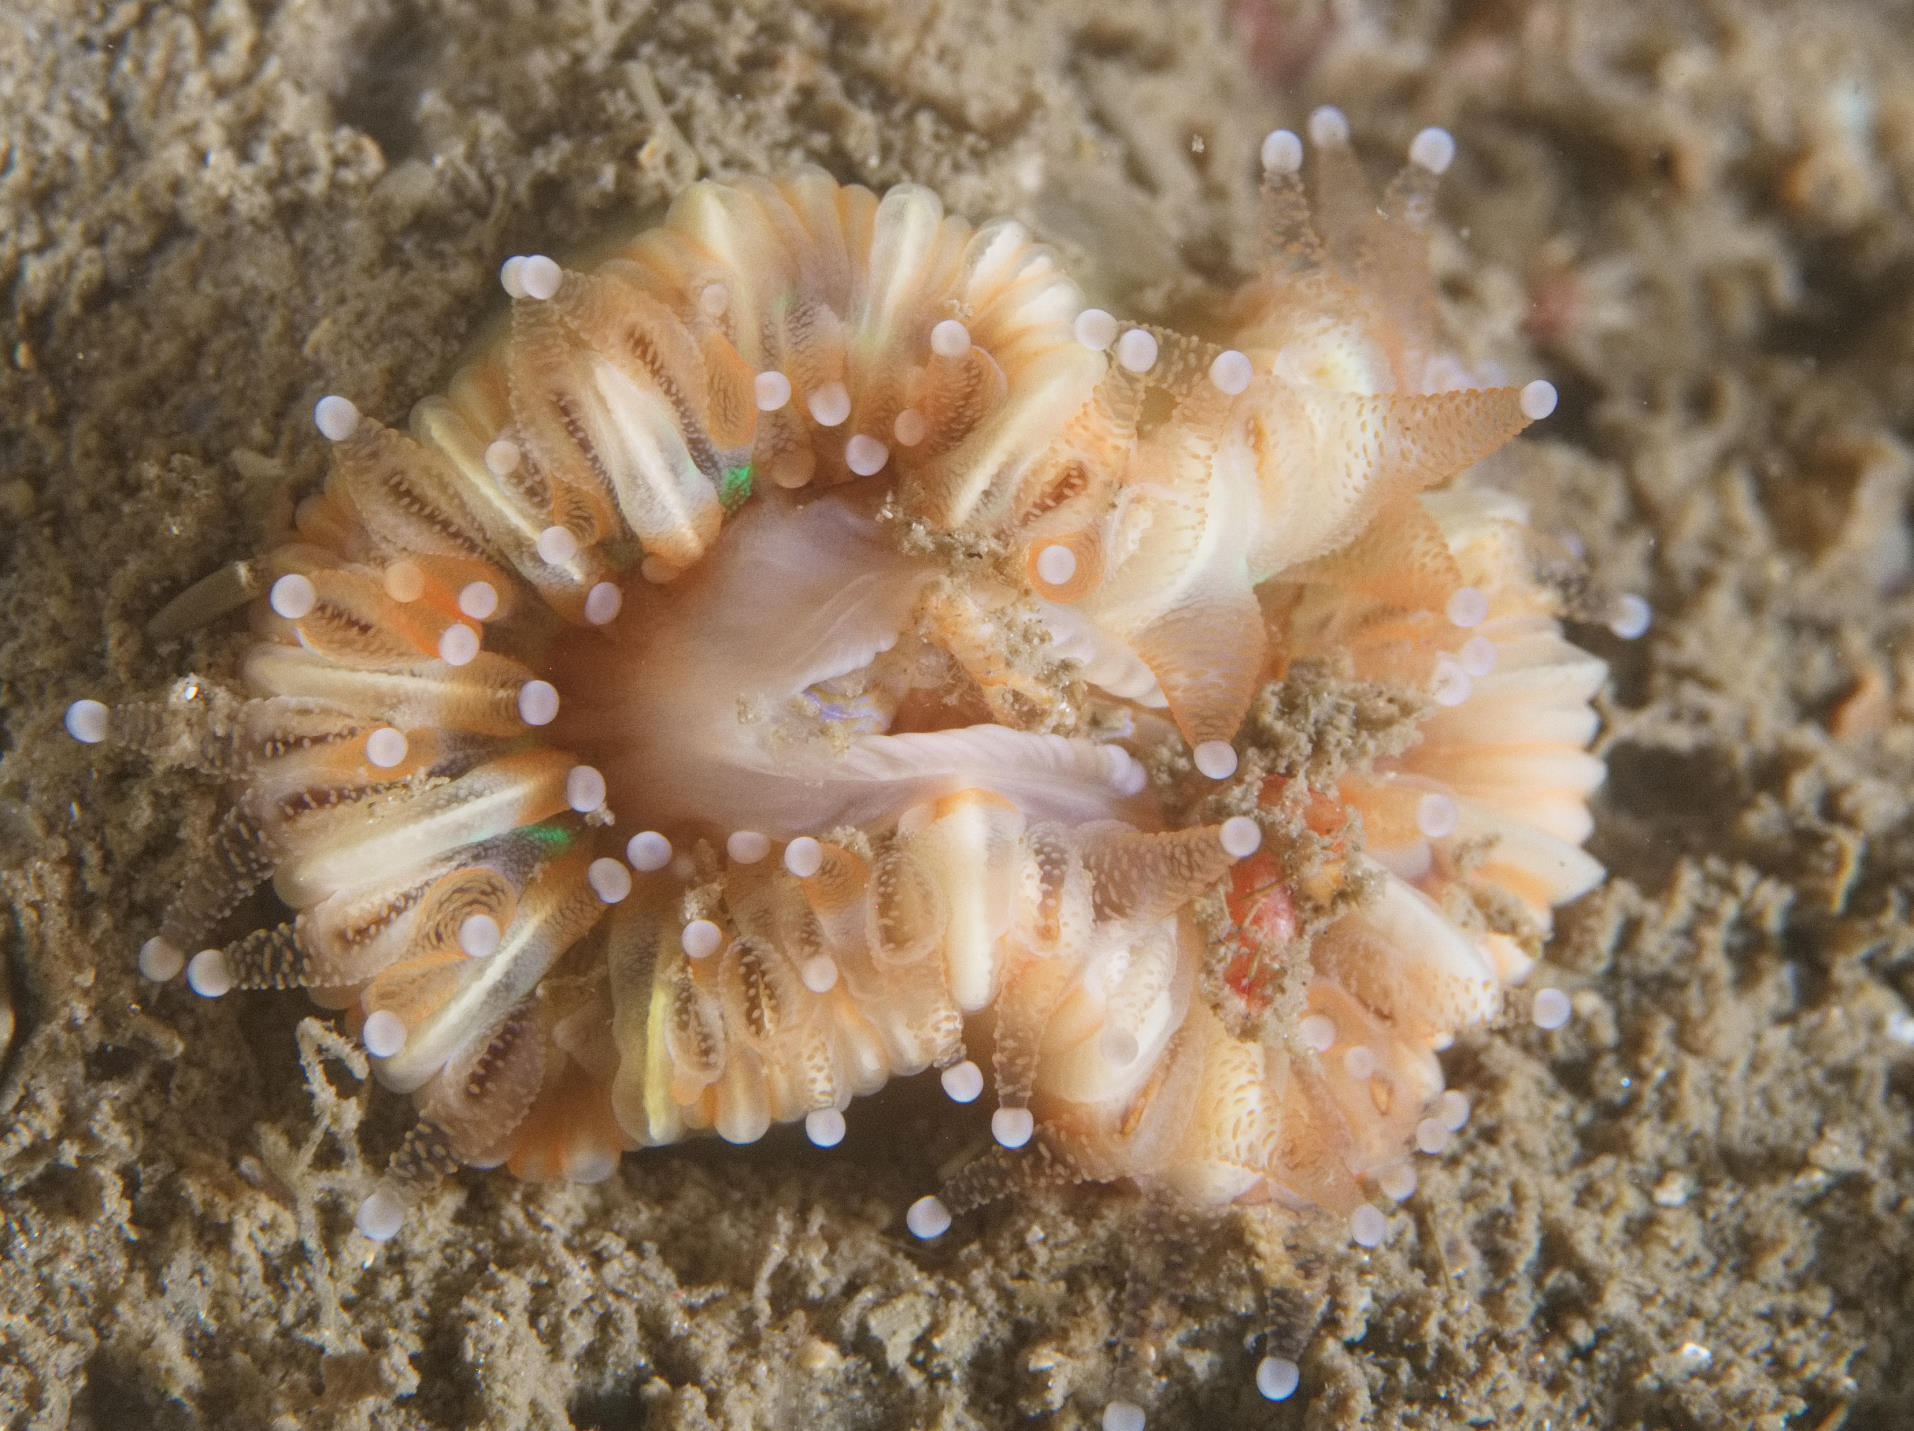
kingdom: Animalia
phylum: Cnidaria
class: Anthozoa
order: Scleractinia
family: Caryophylliidae
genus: Caryophyllia
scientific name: Caryophyllia smithii
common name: Devonshire cup coral
